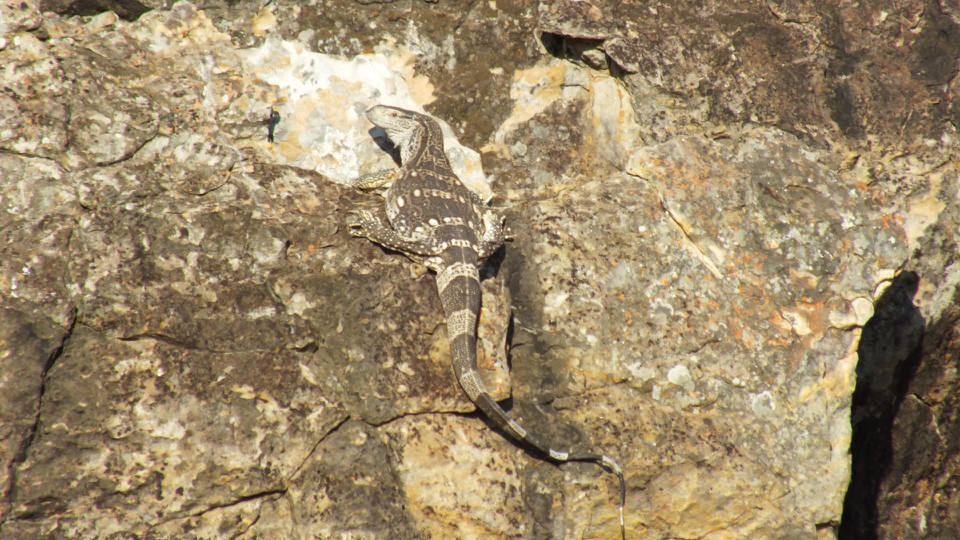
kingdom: Animalia
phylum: Chordata
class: Squamata
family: Varanidae
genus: Varanus
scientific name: Varanus albigularis
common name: White-throated monitor
